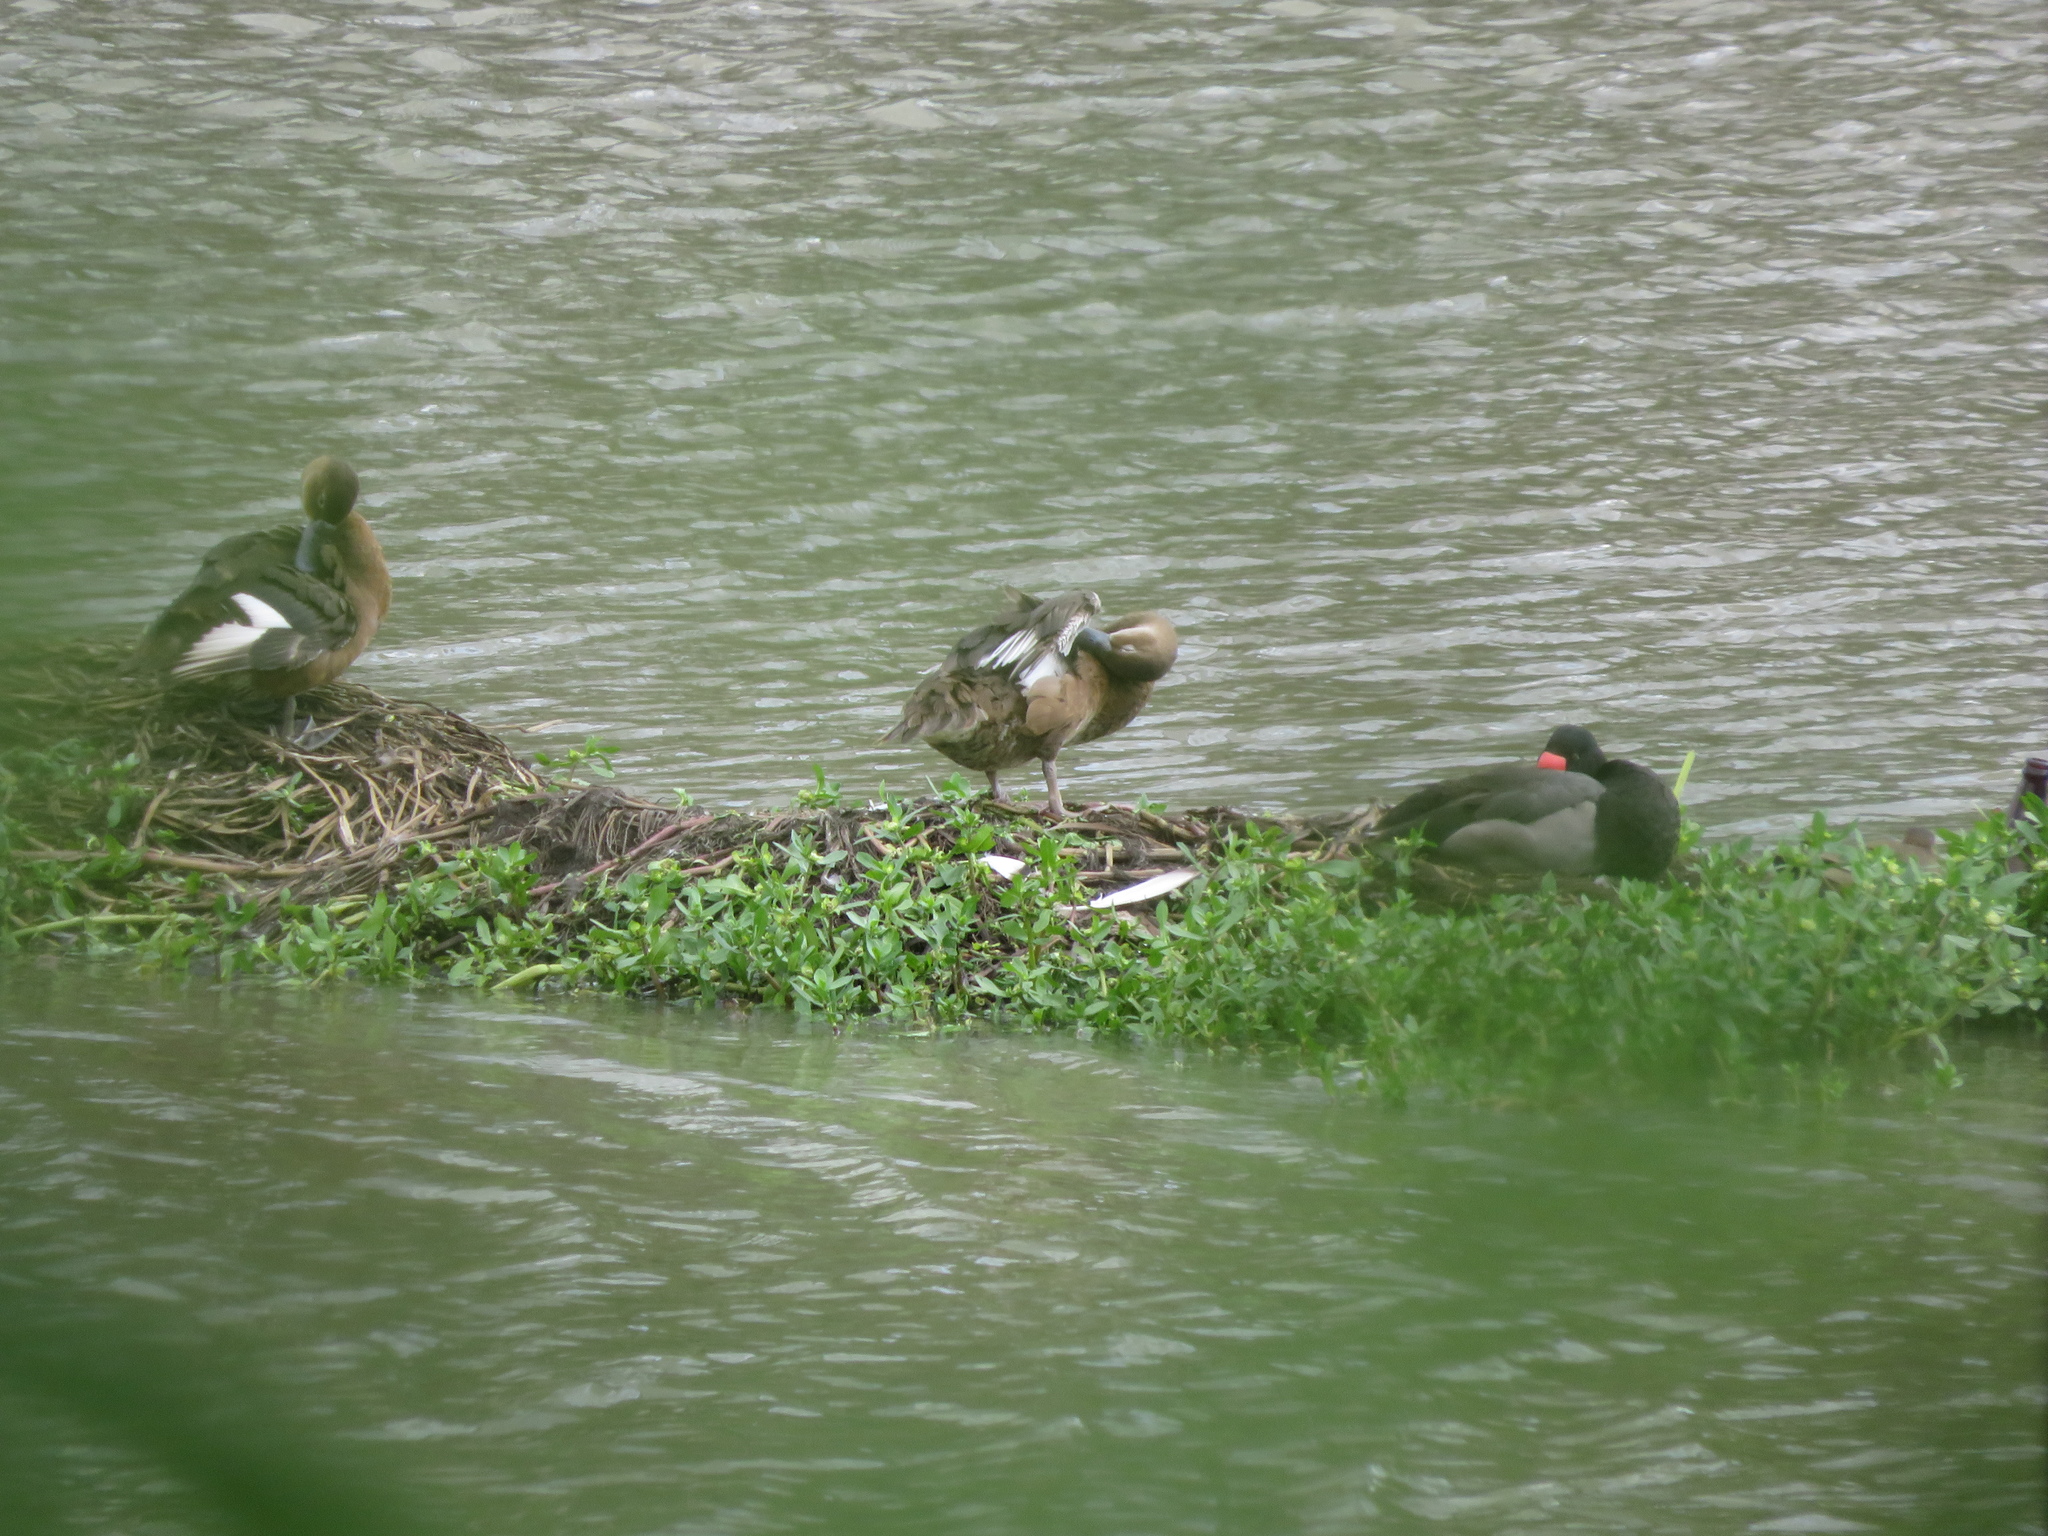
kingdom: Animalia
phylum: Chordata
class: Aves
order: Anseriformes
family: Anatidae
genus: Netta
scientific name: Netta peposaca
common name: Rosy-billed pochard
